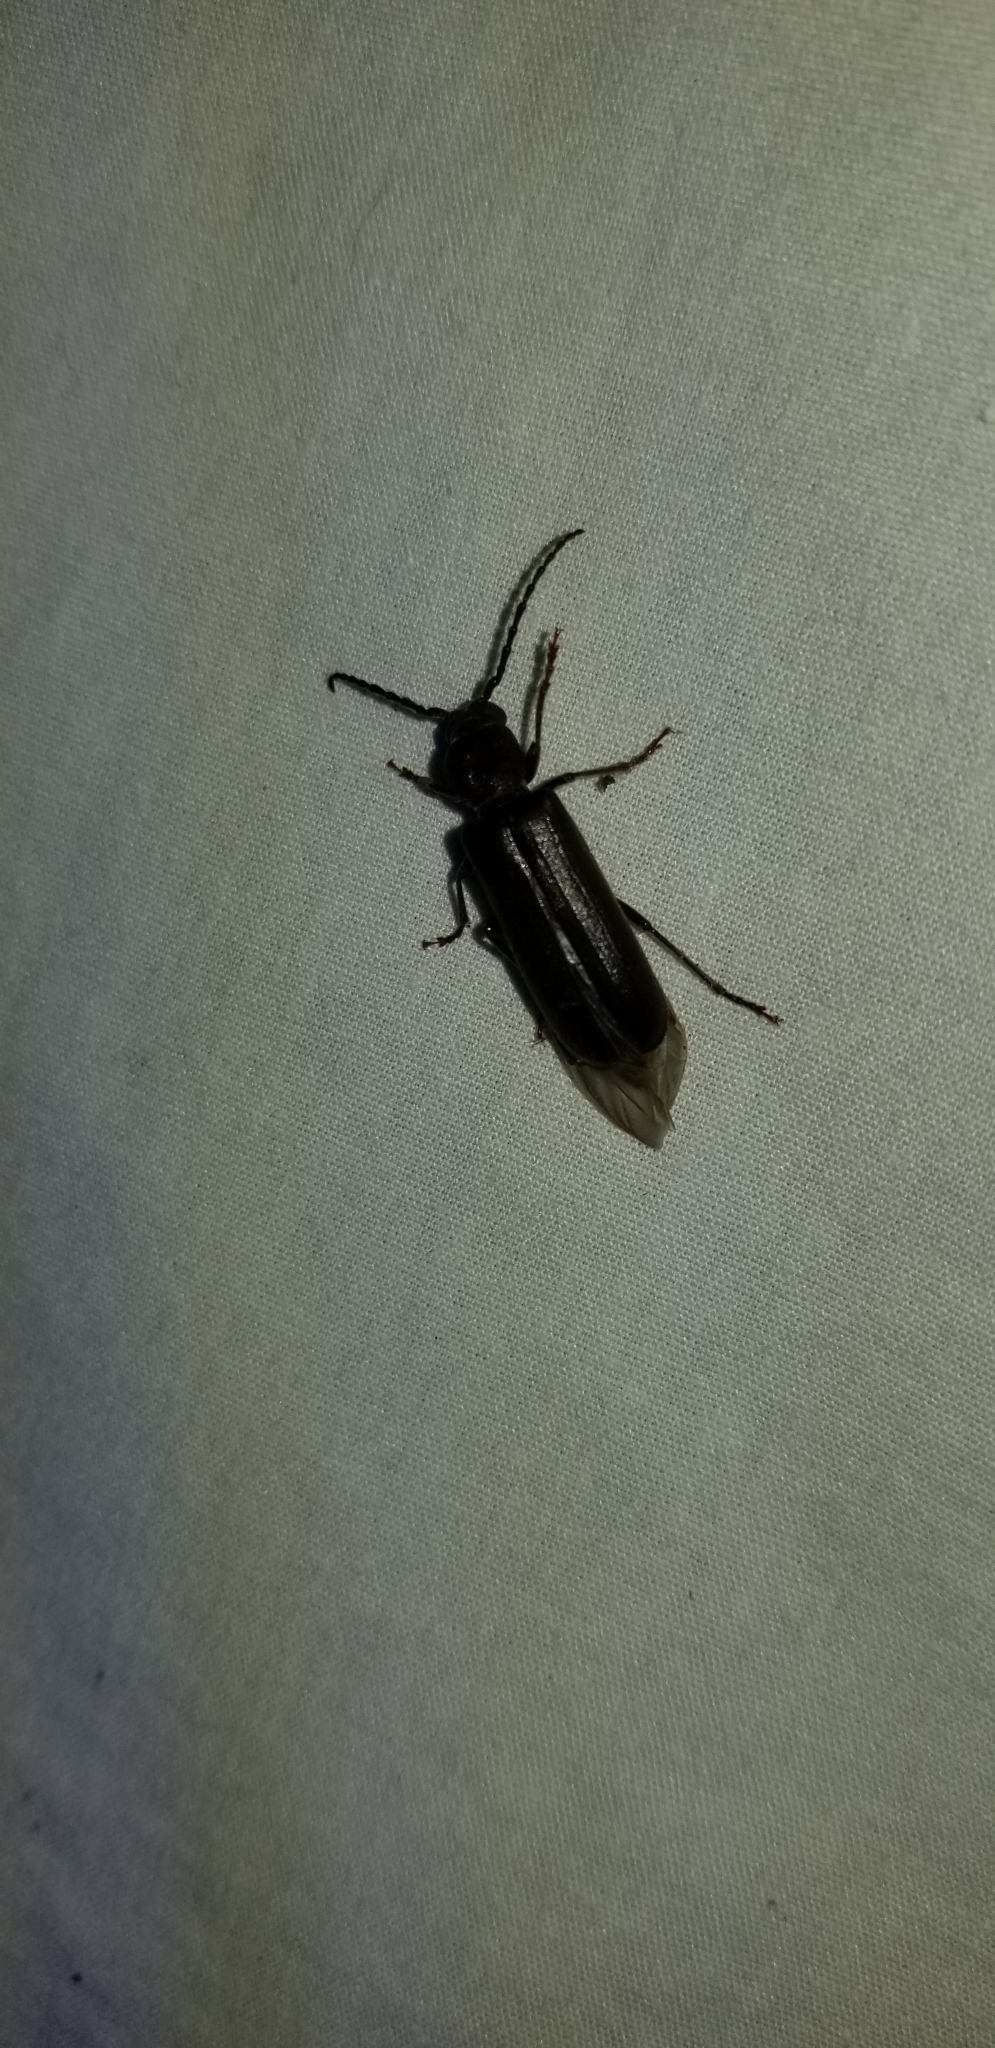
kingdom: Animalia
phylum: Arthropoda
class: Insecta
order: Coleoptera
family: Cerambycidae
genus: Asemum
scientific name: Asemum nitidum
